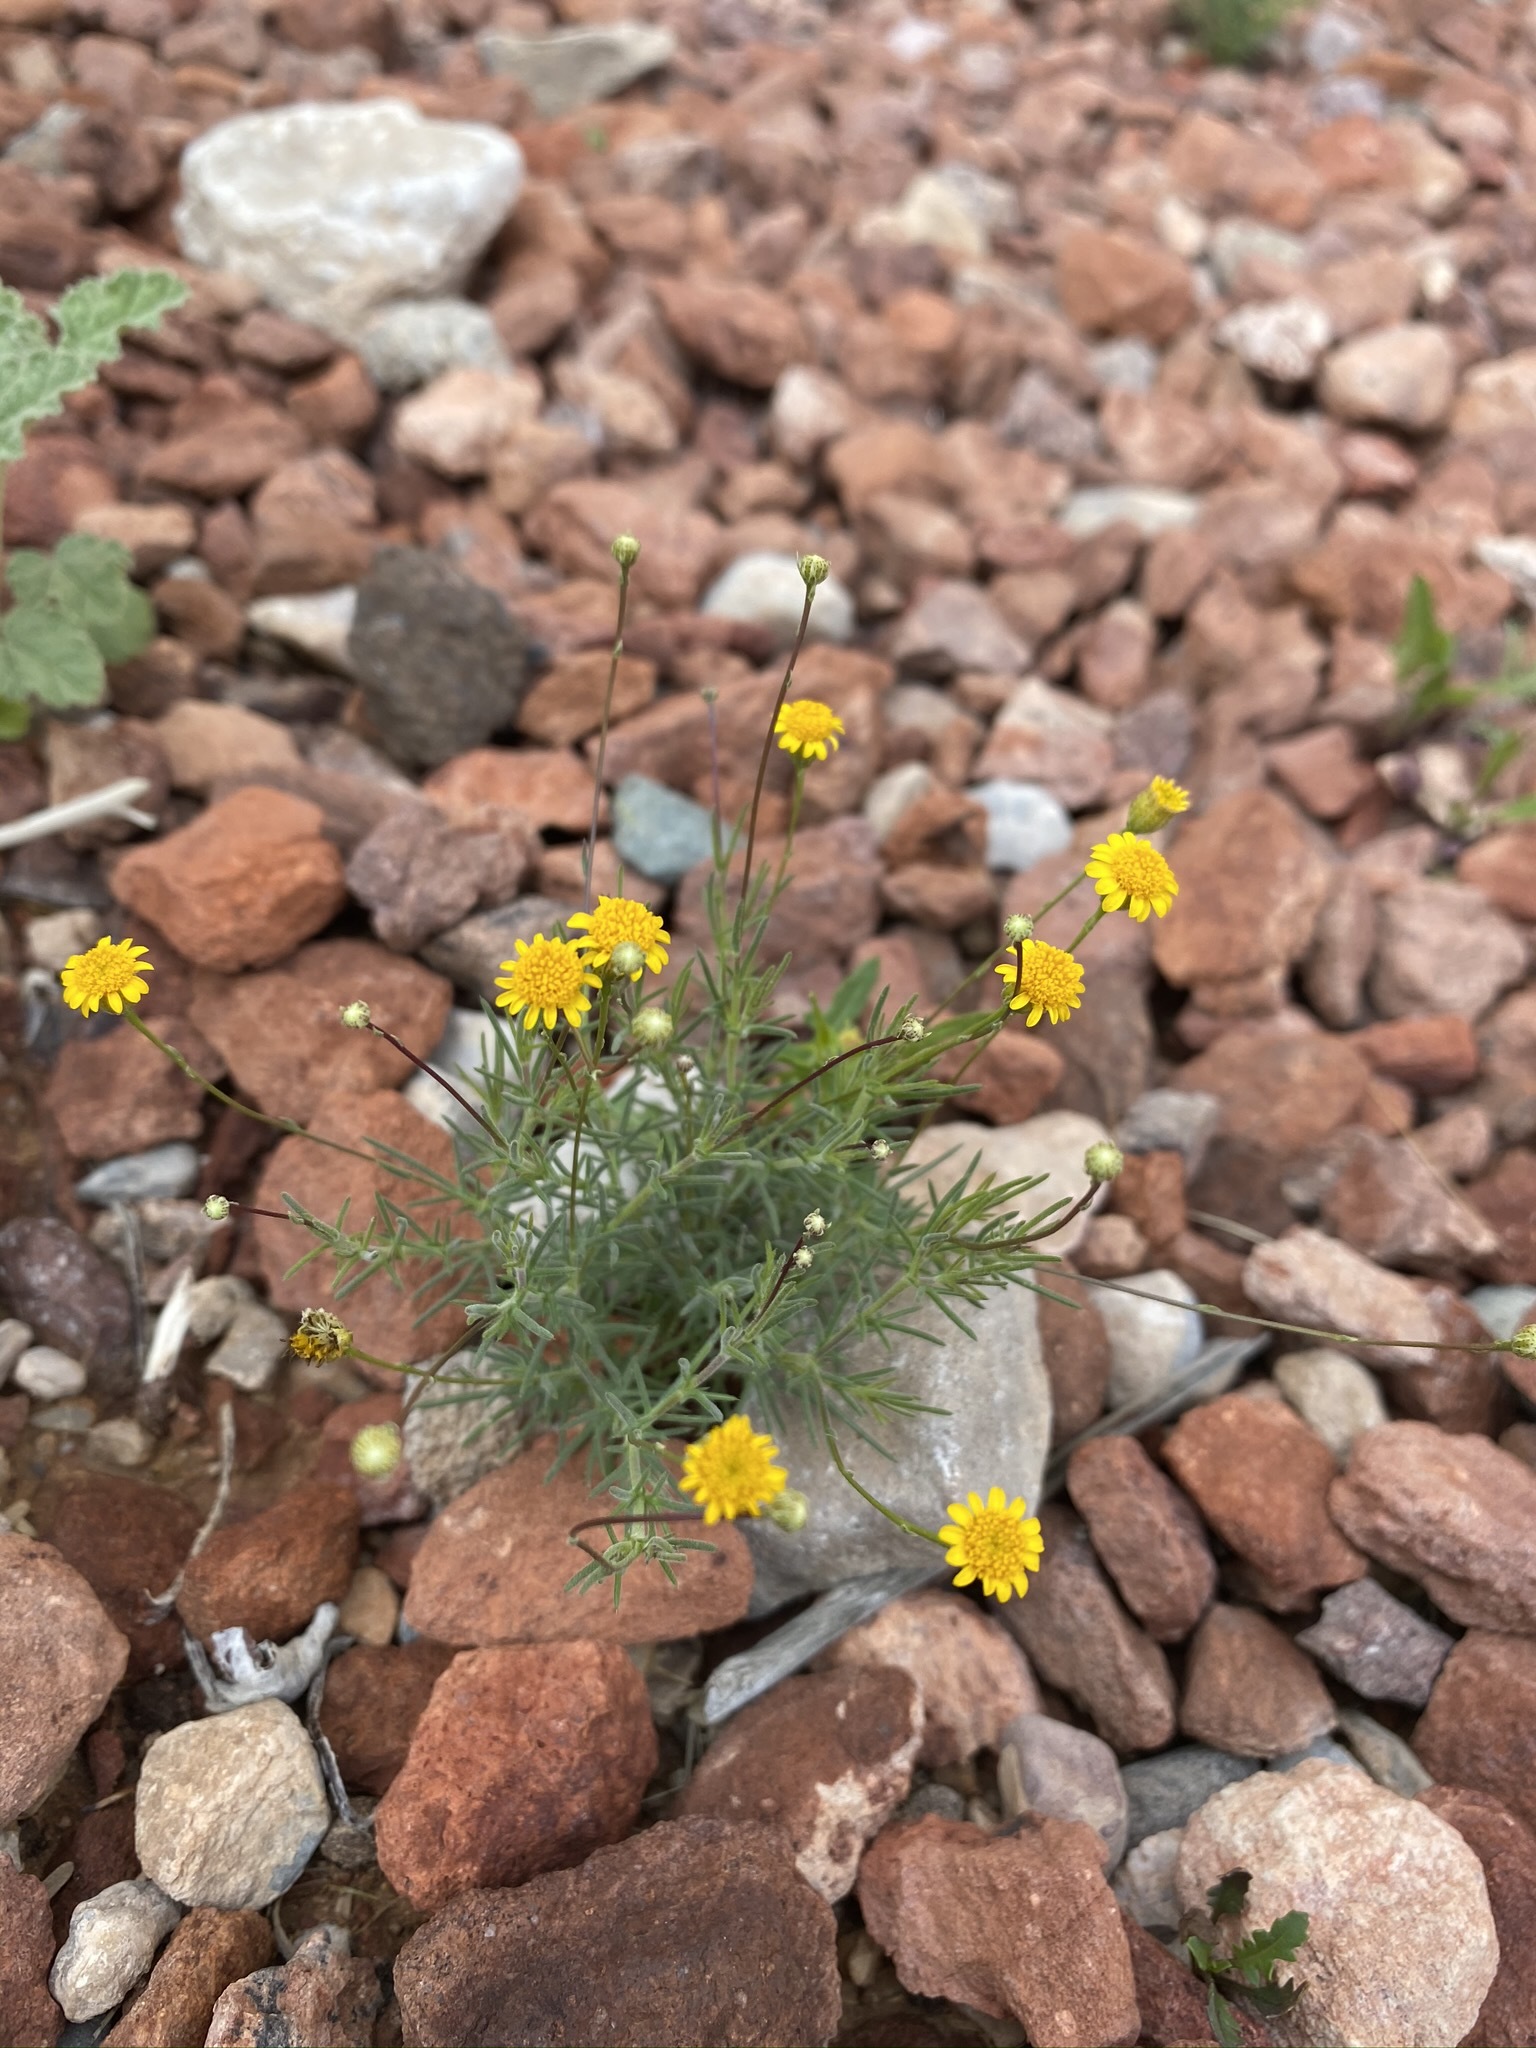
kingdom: Plantae
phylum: Tracheophyta
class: Magnoliopsida
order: Asterales
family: Asteraceae
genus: Thymophylla
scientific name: Thymophylla pentachaeta
